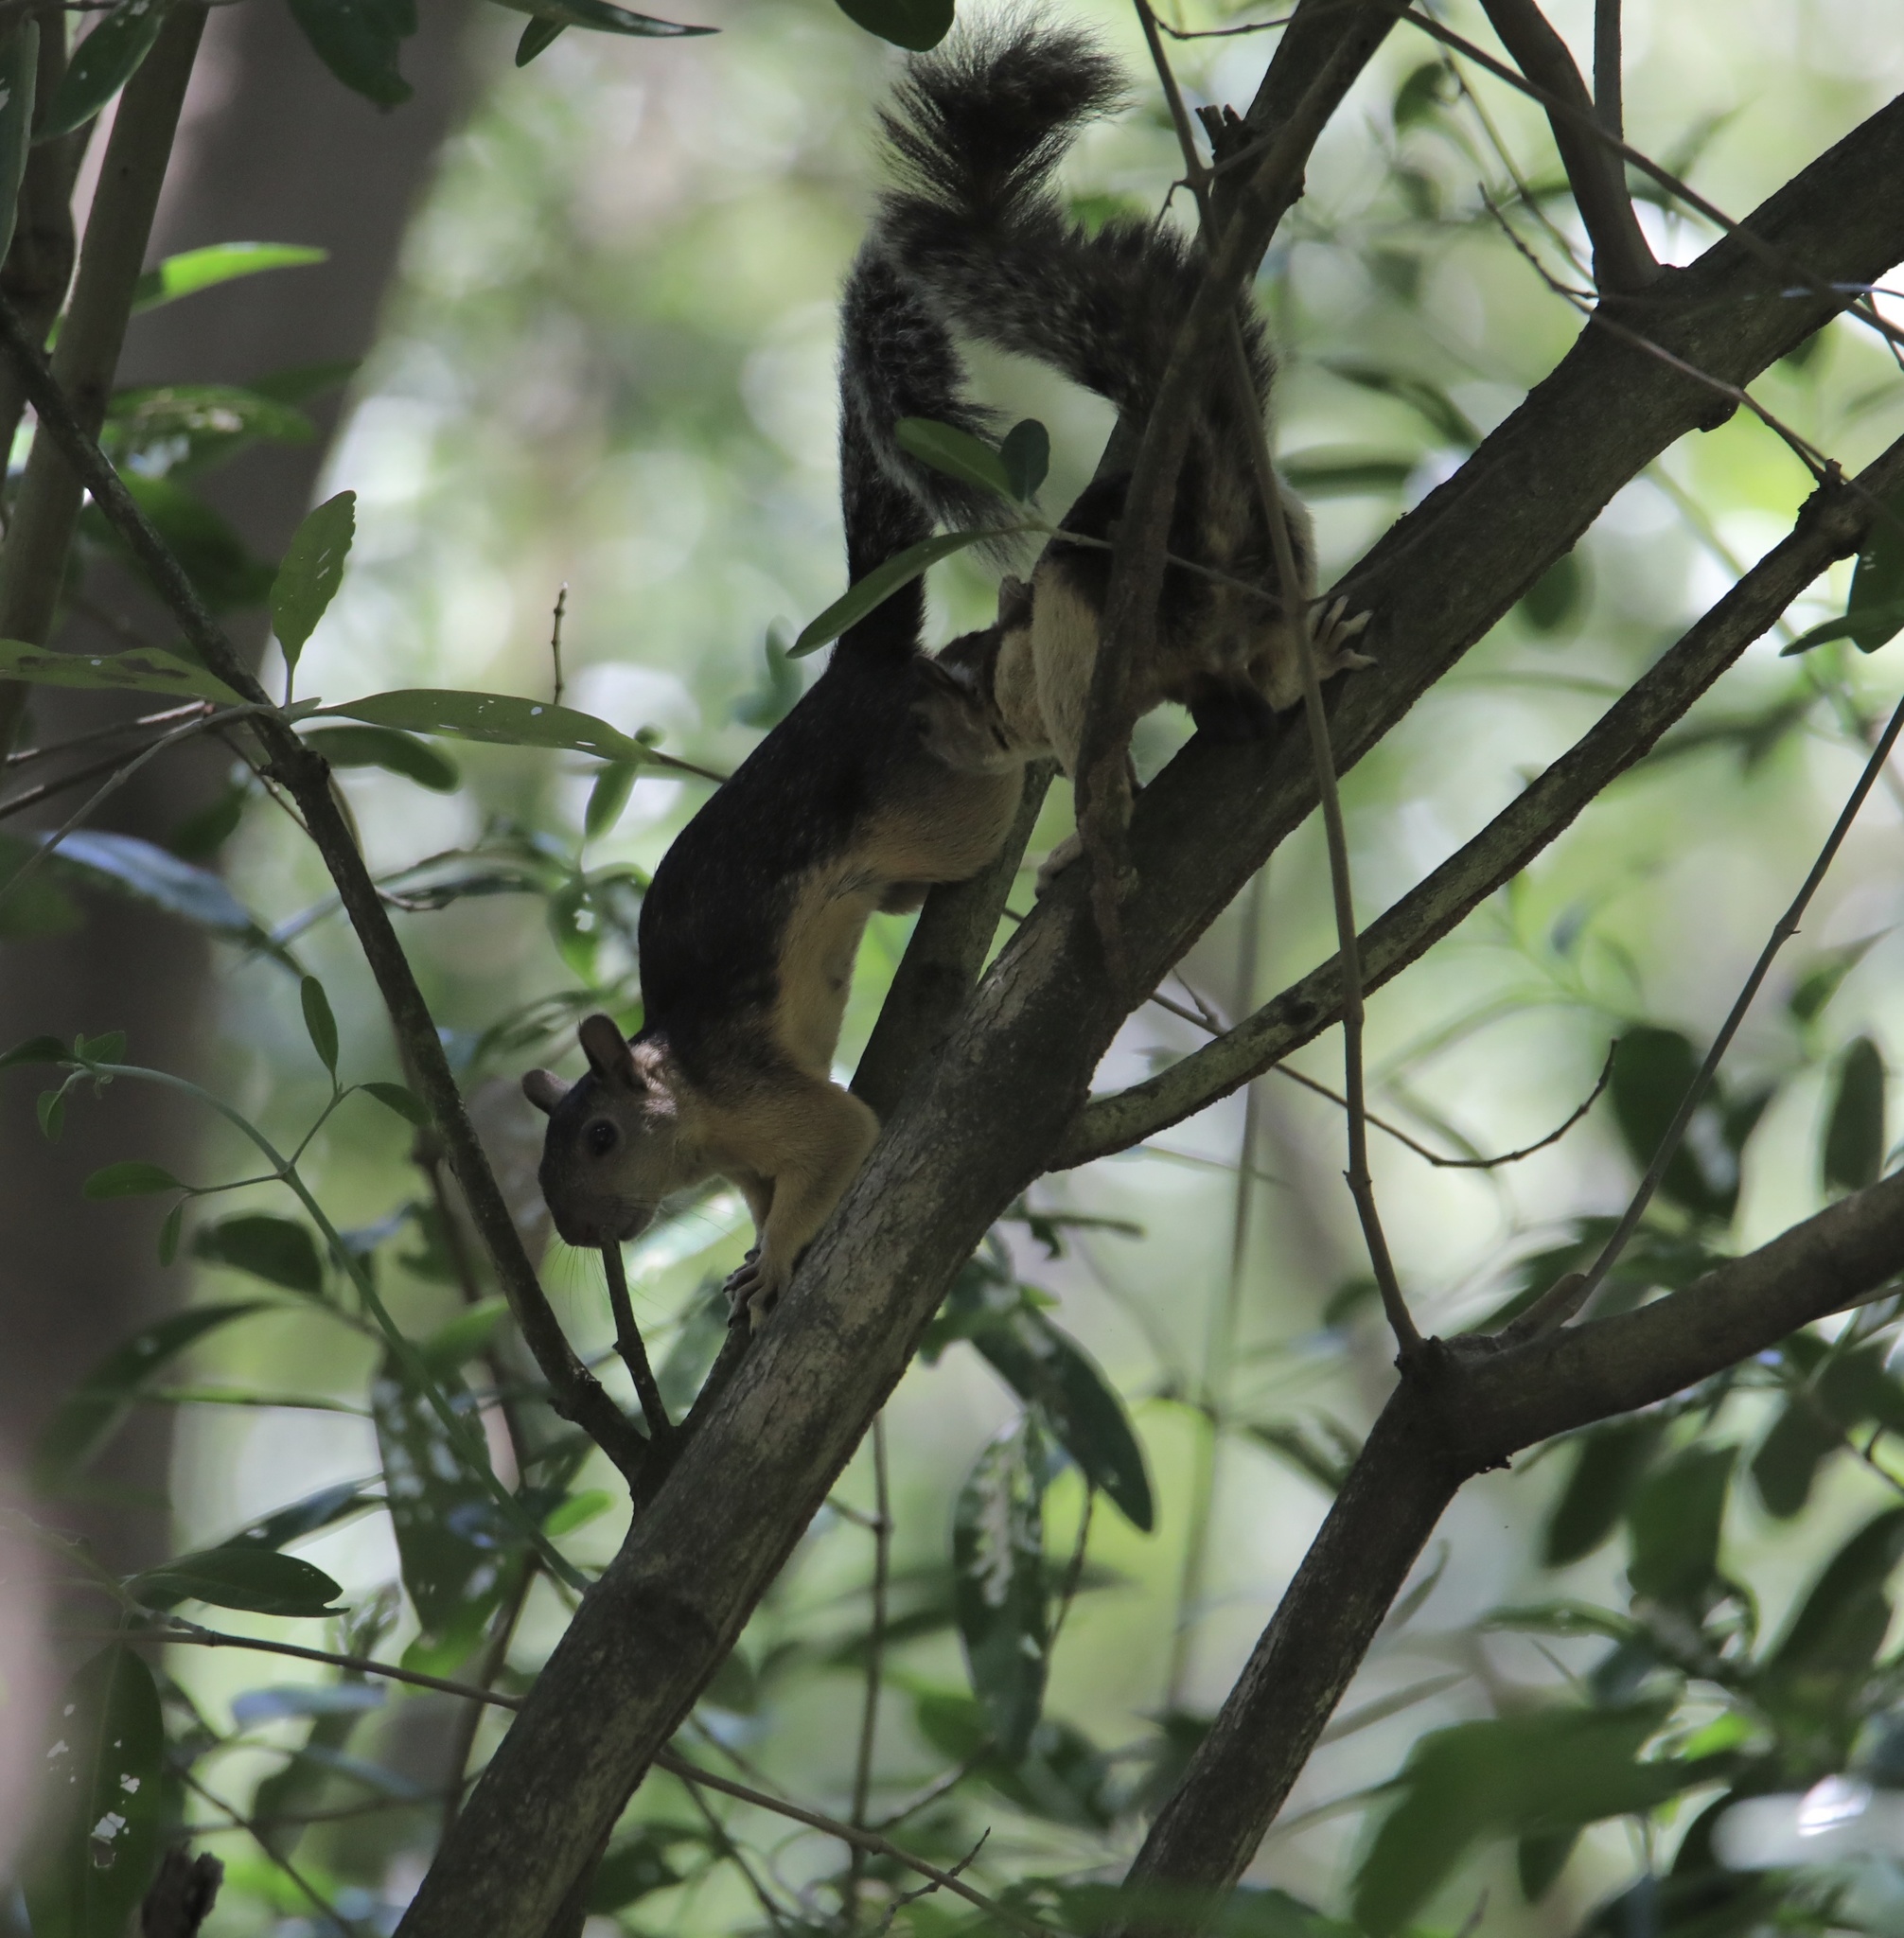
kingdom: Animalia
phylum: Chordata
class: Mammalia
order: Rodentia
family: Sciuridae
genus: Sciurus
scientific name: Sciurus variegatoides
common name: Variegated squirrel
